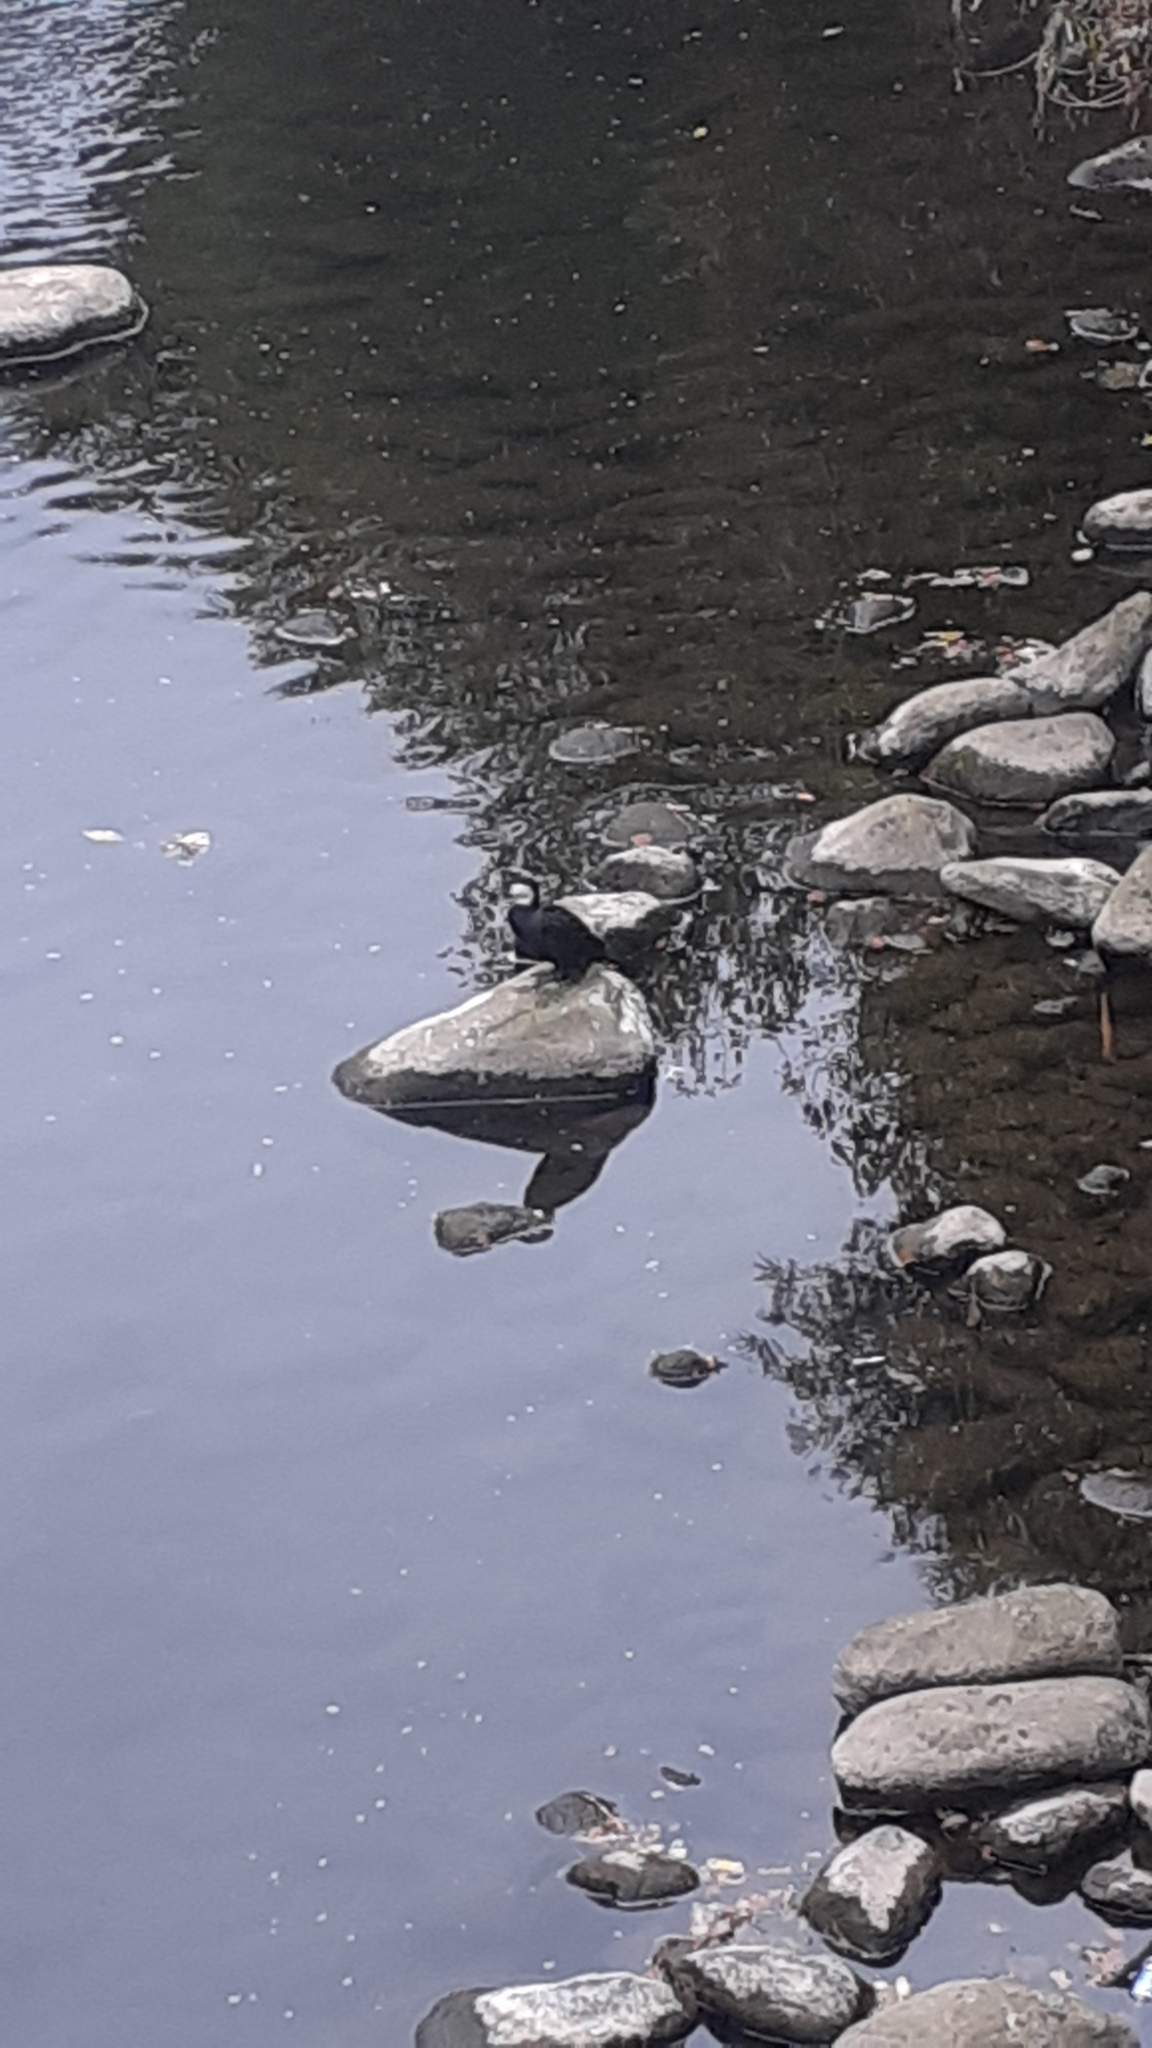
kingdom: Animalia
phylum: Chordata
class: Aves
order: Suliformes
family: Phalacrocoracidae
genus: Microcarbo
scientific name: Microcarbo melanoleucos
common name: Little pied cormorant
